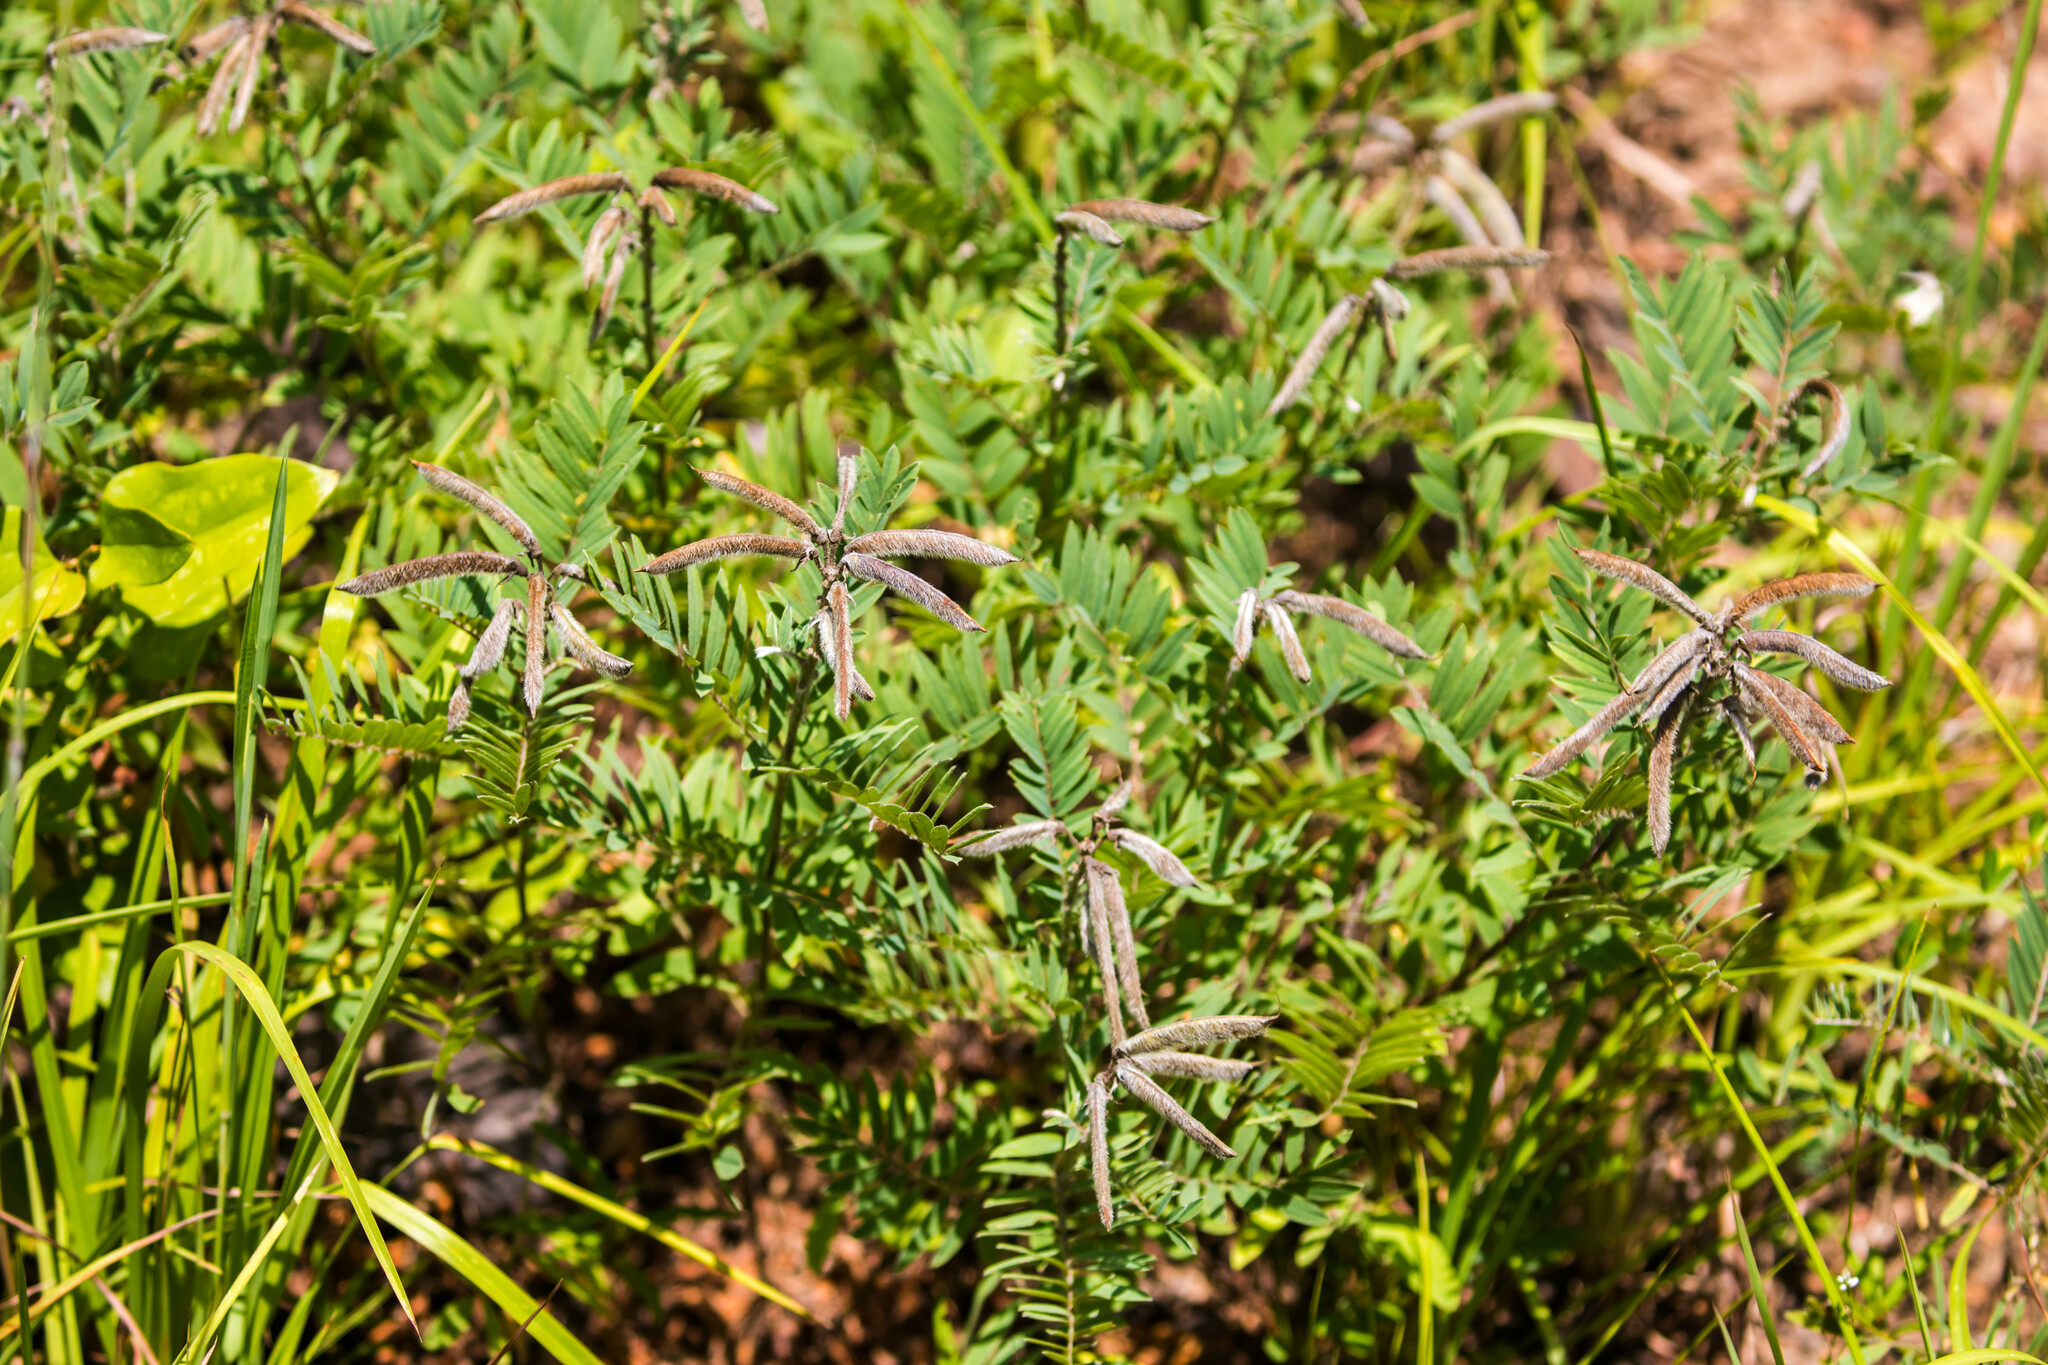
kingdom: Plantae
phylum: Tracheophyta
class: Magnoliopsida
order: Fabales
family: Fabaceae
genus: Tephrosia
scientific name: Tephrosia virginiana
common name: Rabbit-pea
